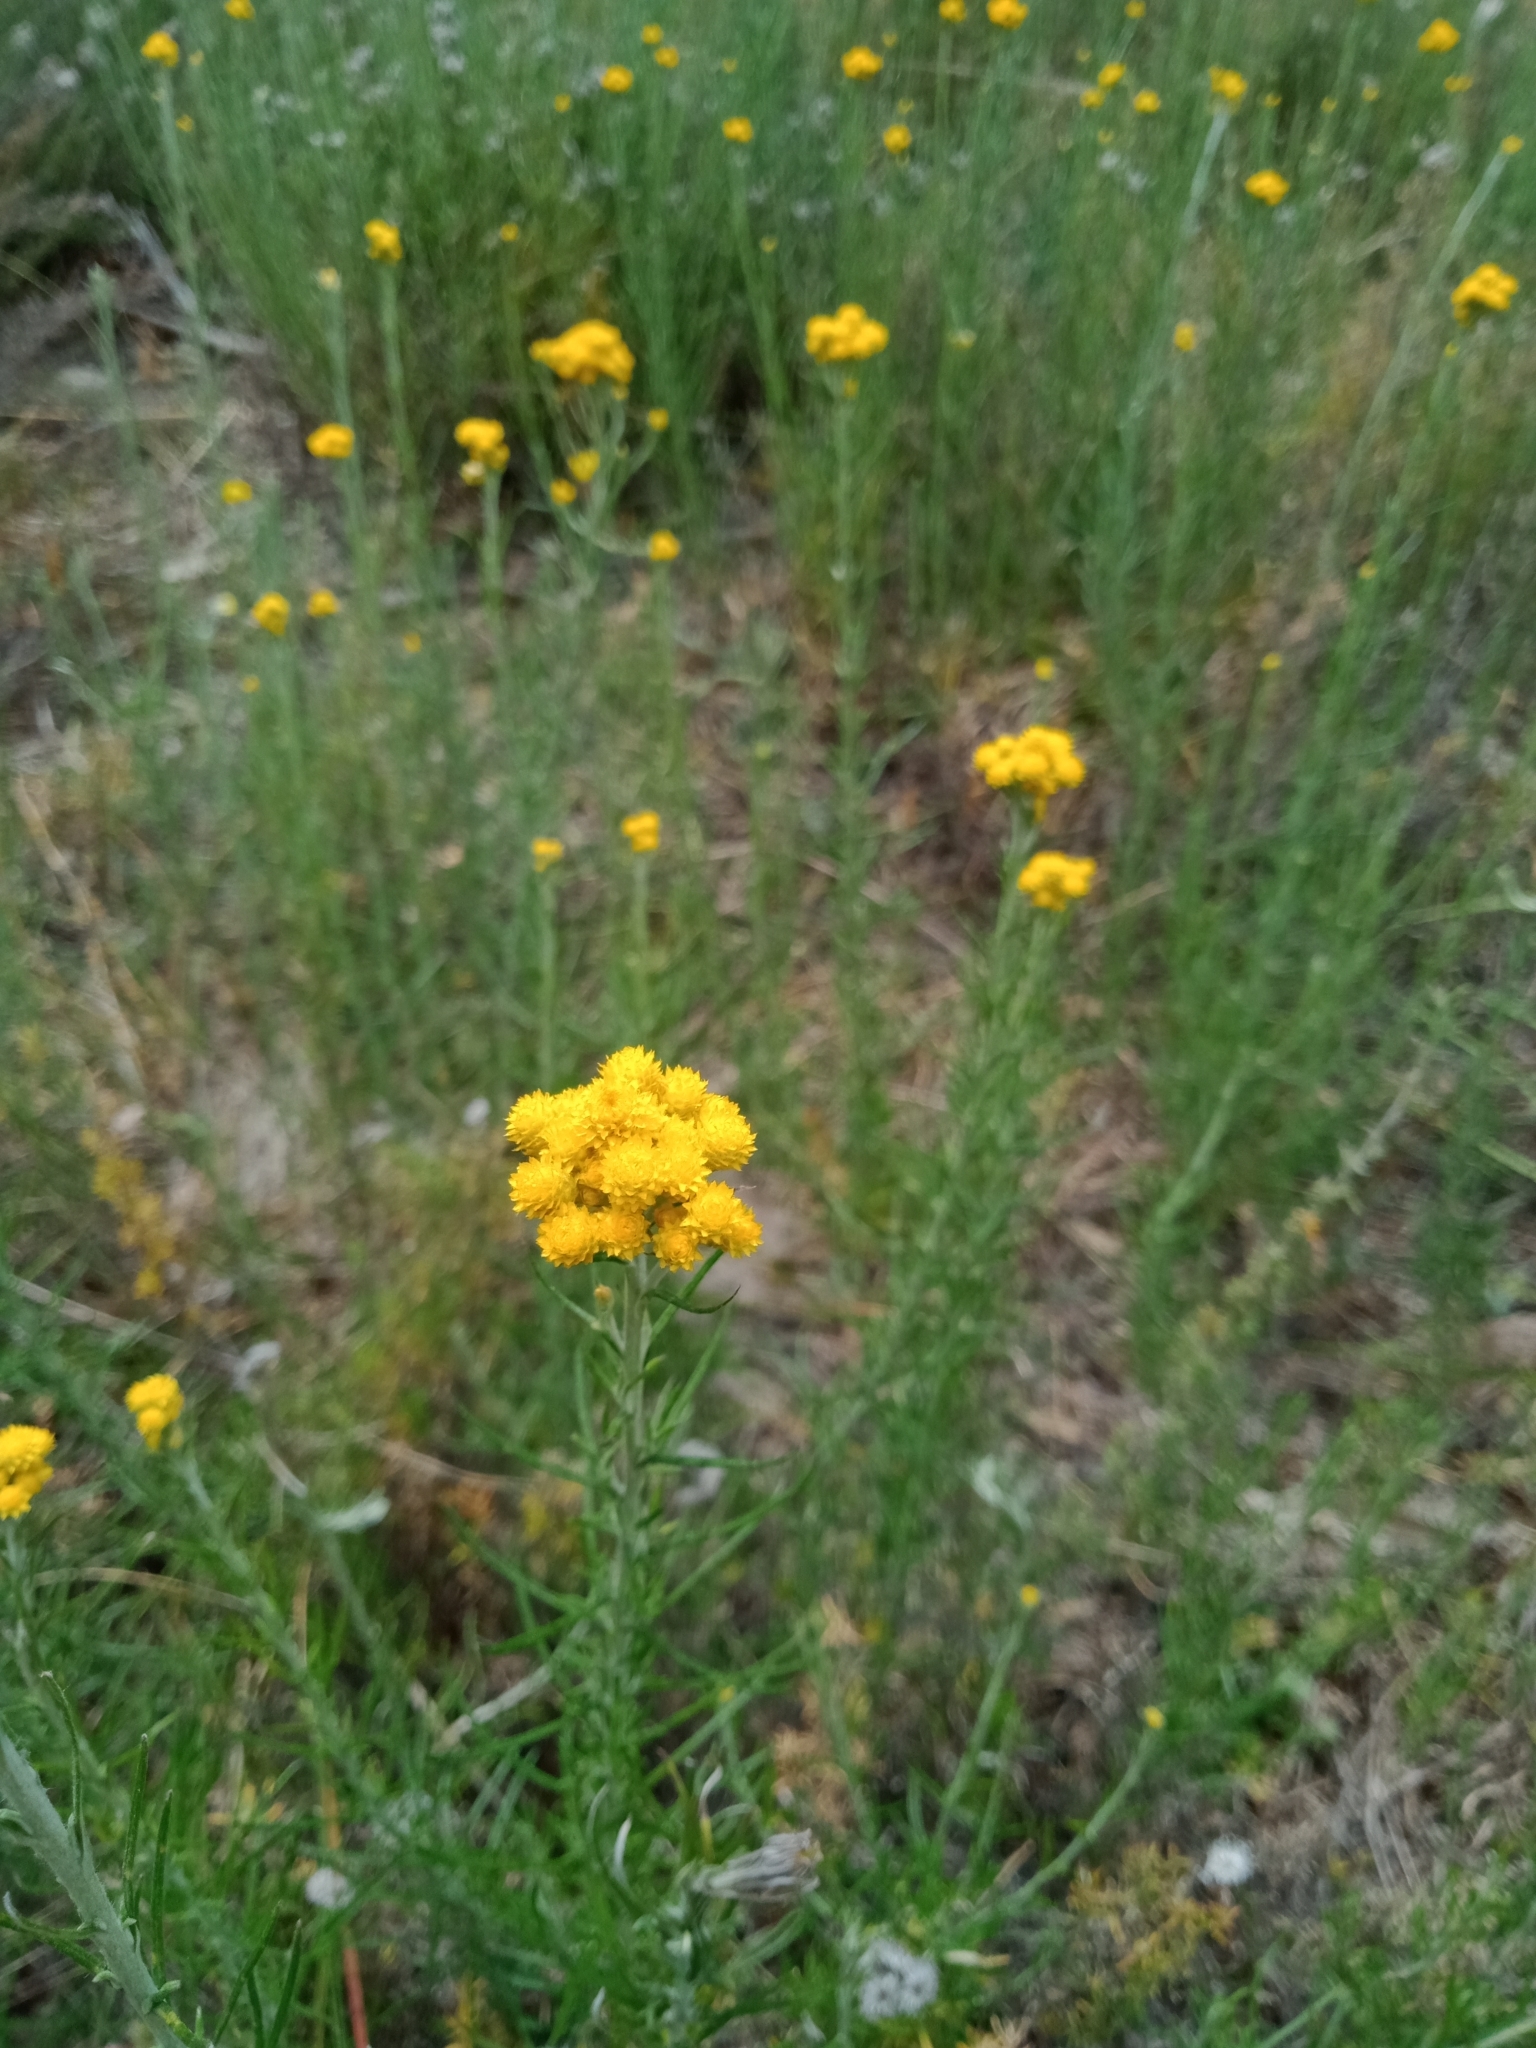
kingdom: Plantae
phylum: Tracheophyta
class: Magnoliopsida
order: Asterales
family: Asteraceae
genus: Chrysocephalum
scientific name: Chrysocephalum semipapposum
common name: Clustered everlasting
